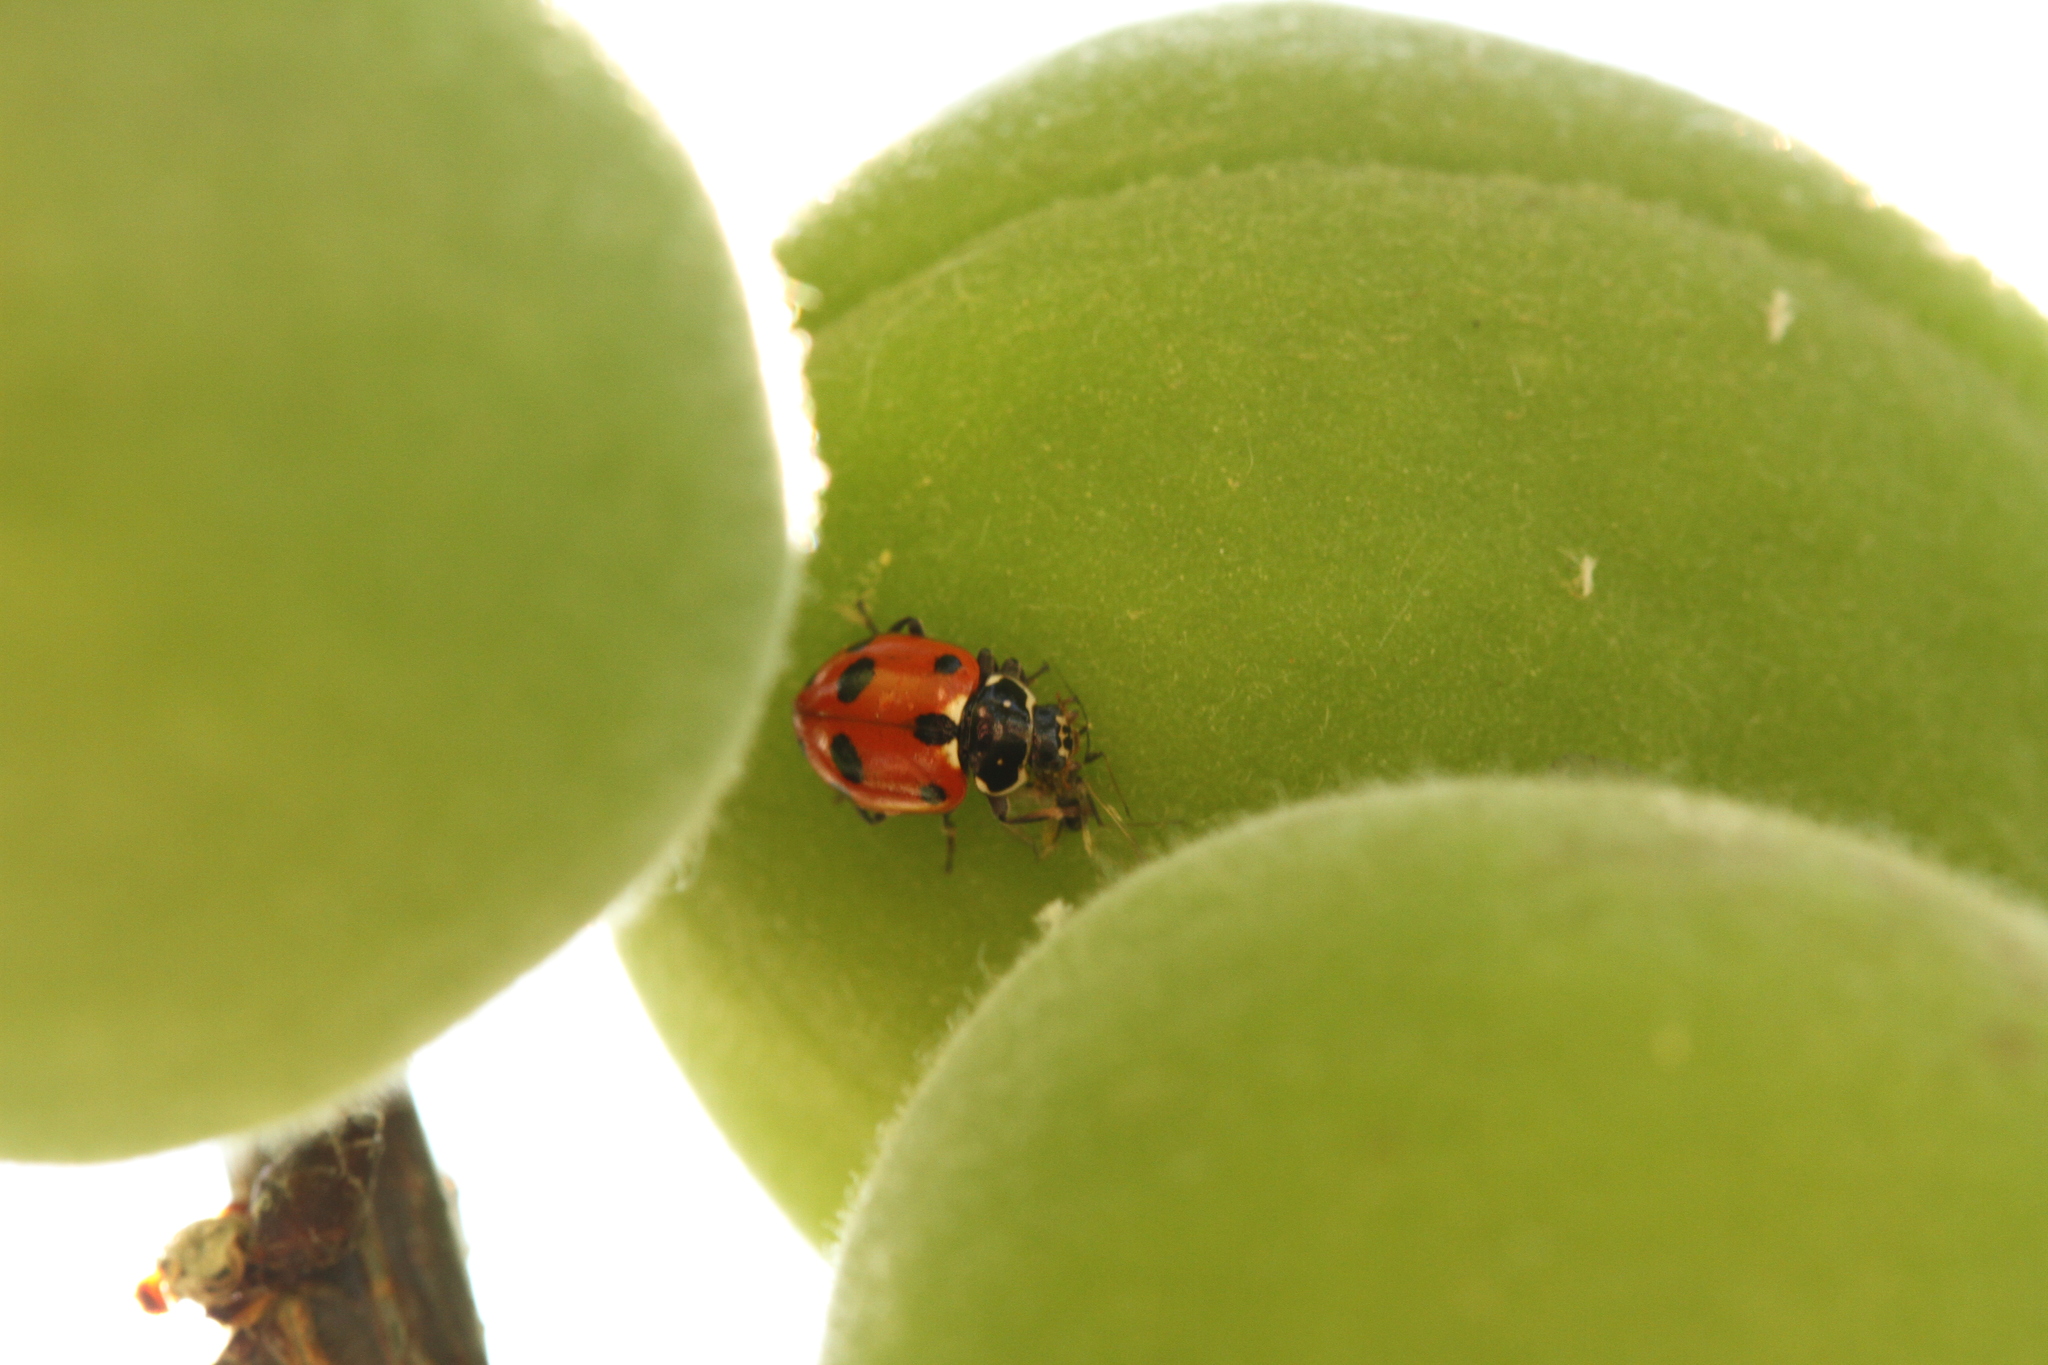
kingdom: Animalia
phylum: Arthropoda
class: Insecta
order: Coleoptera
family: Coccinellidae
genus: Hippodamia
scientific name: Hippodamia variegata
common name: Ladybird beetle
